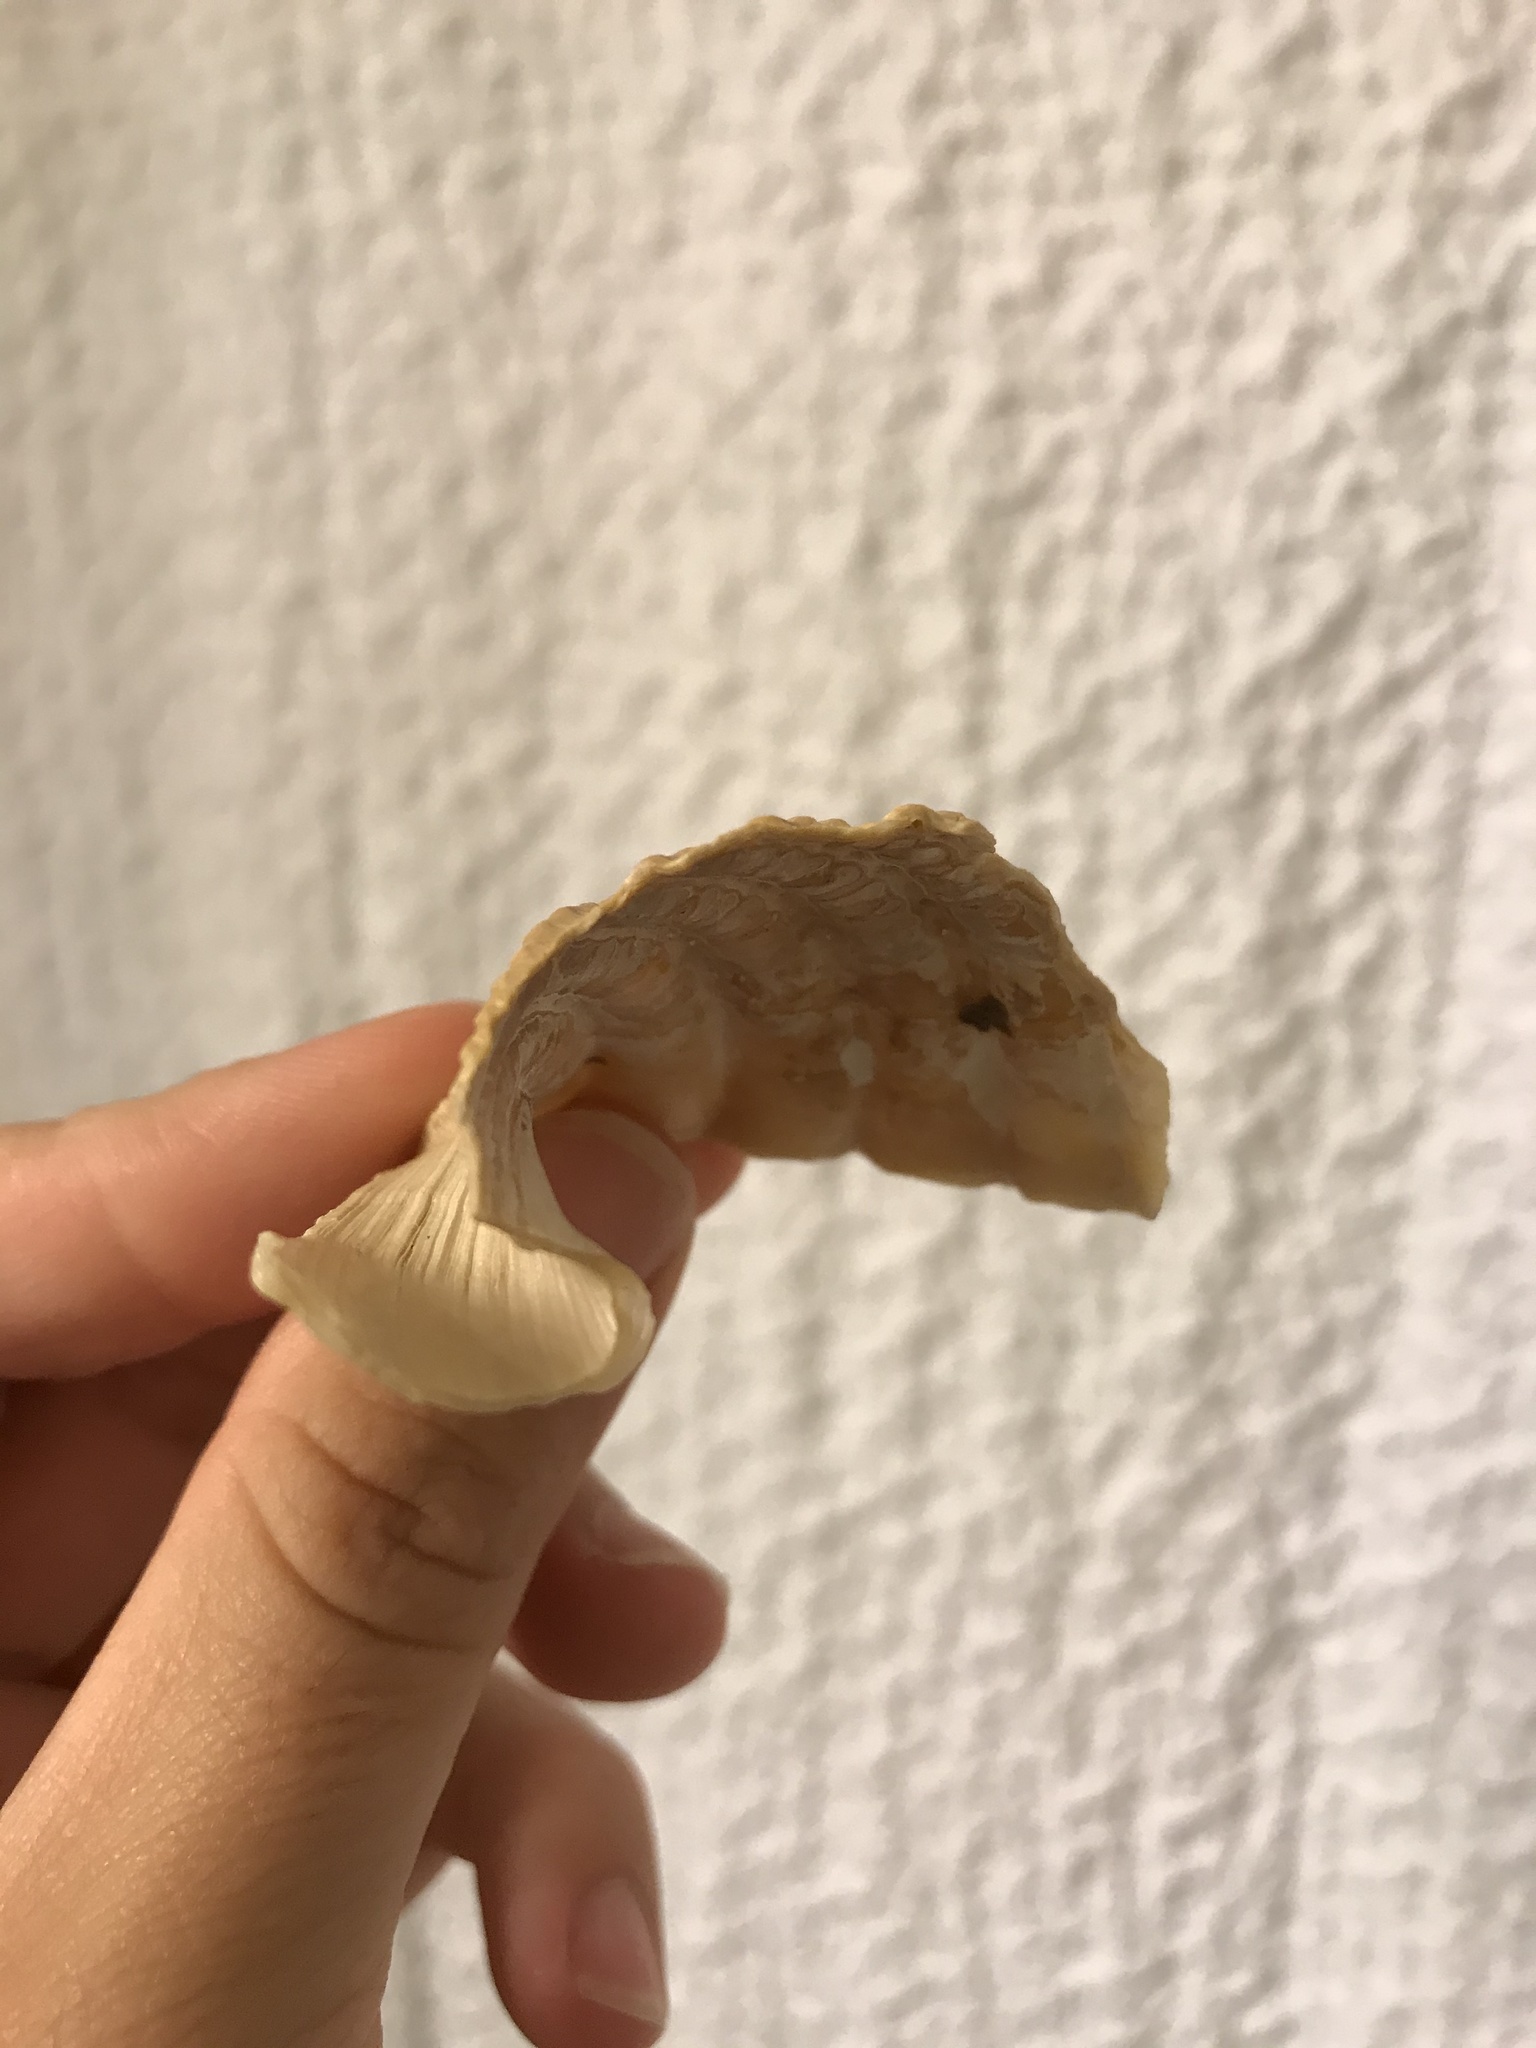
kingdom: Animalia
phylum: Mollusca
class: Bivalvia
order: Myida
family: Pholadidae
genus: Cyrtopleura
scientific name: Cyrtopleura costata
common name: Angel wing
